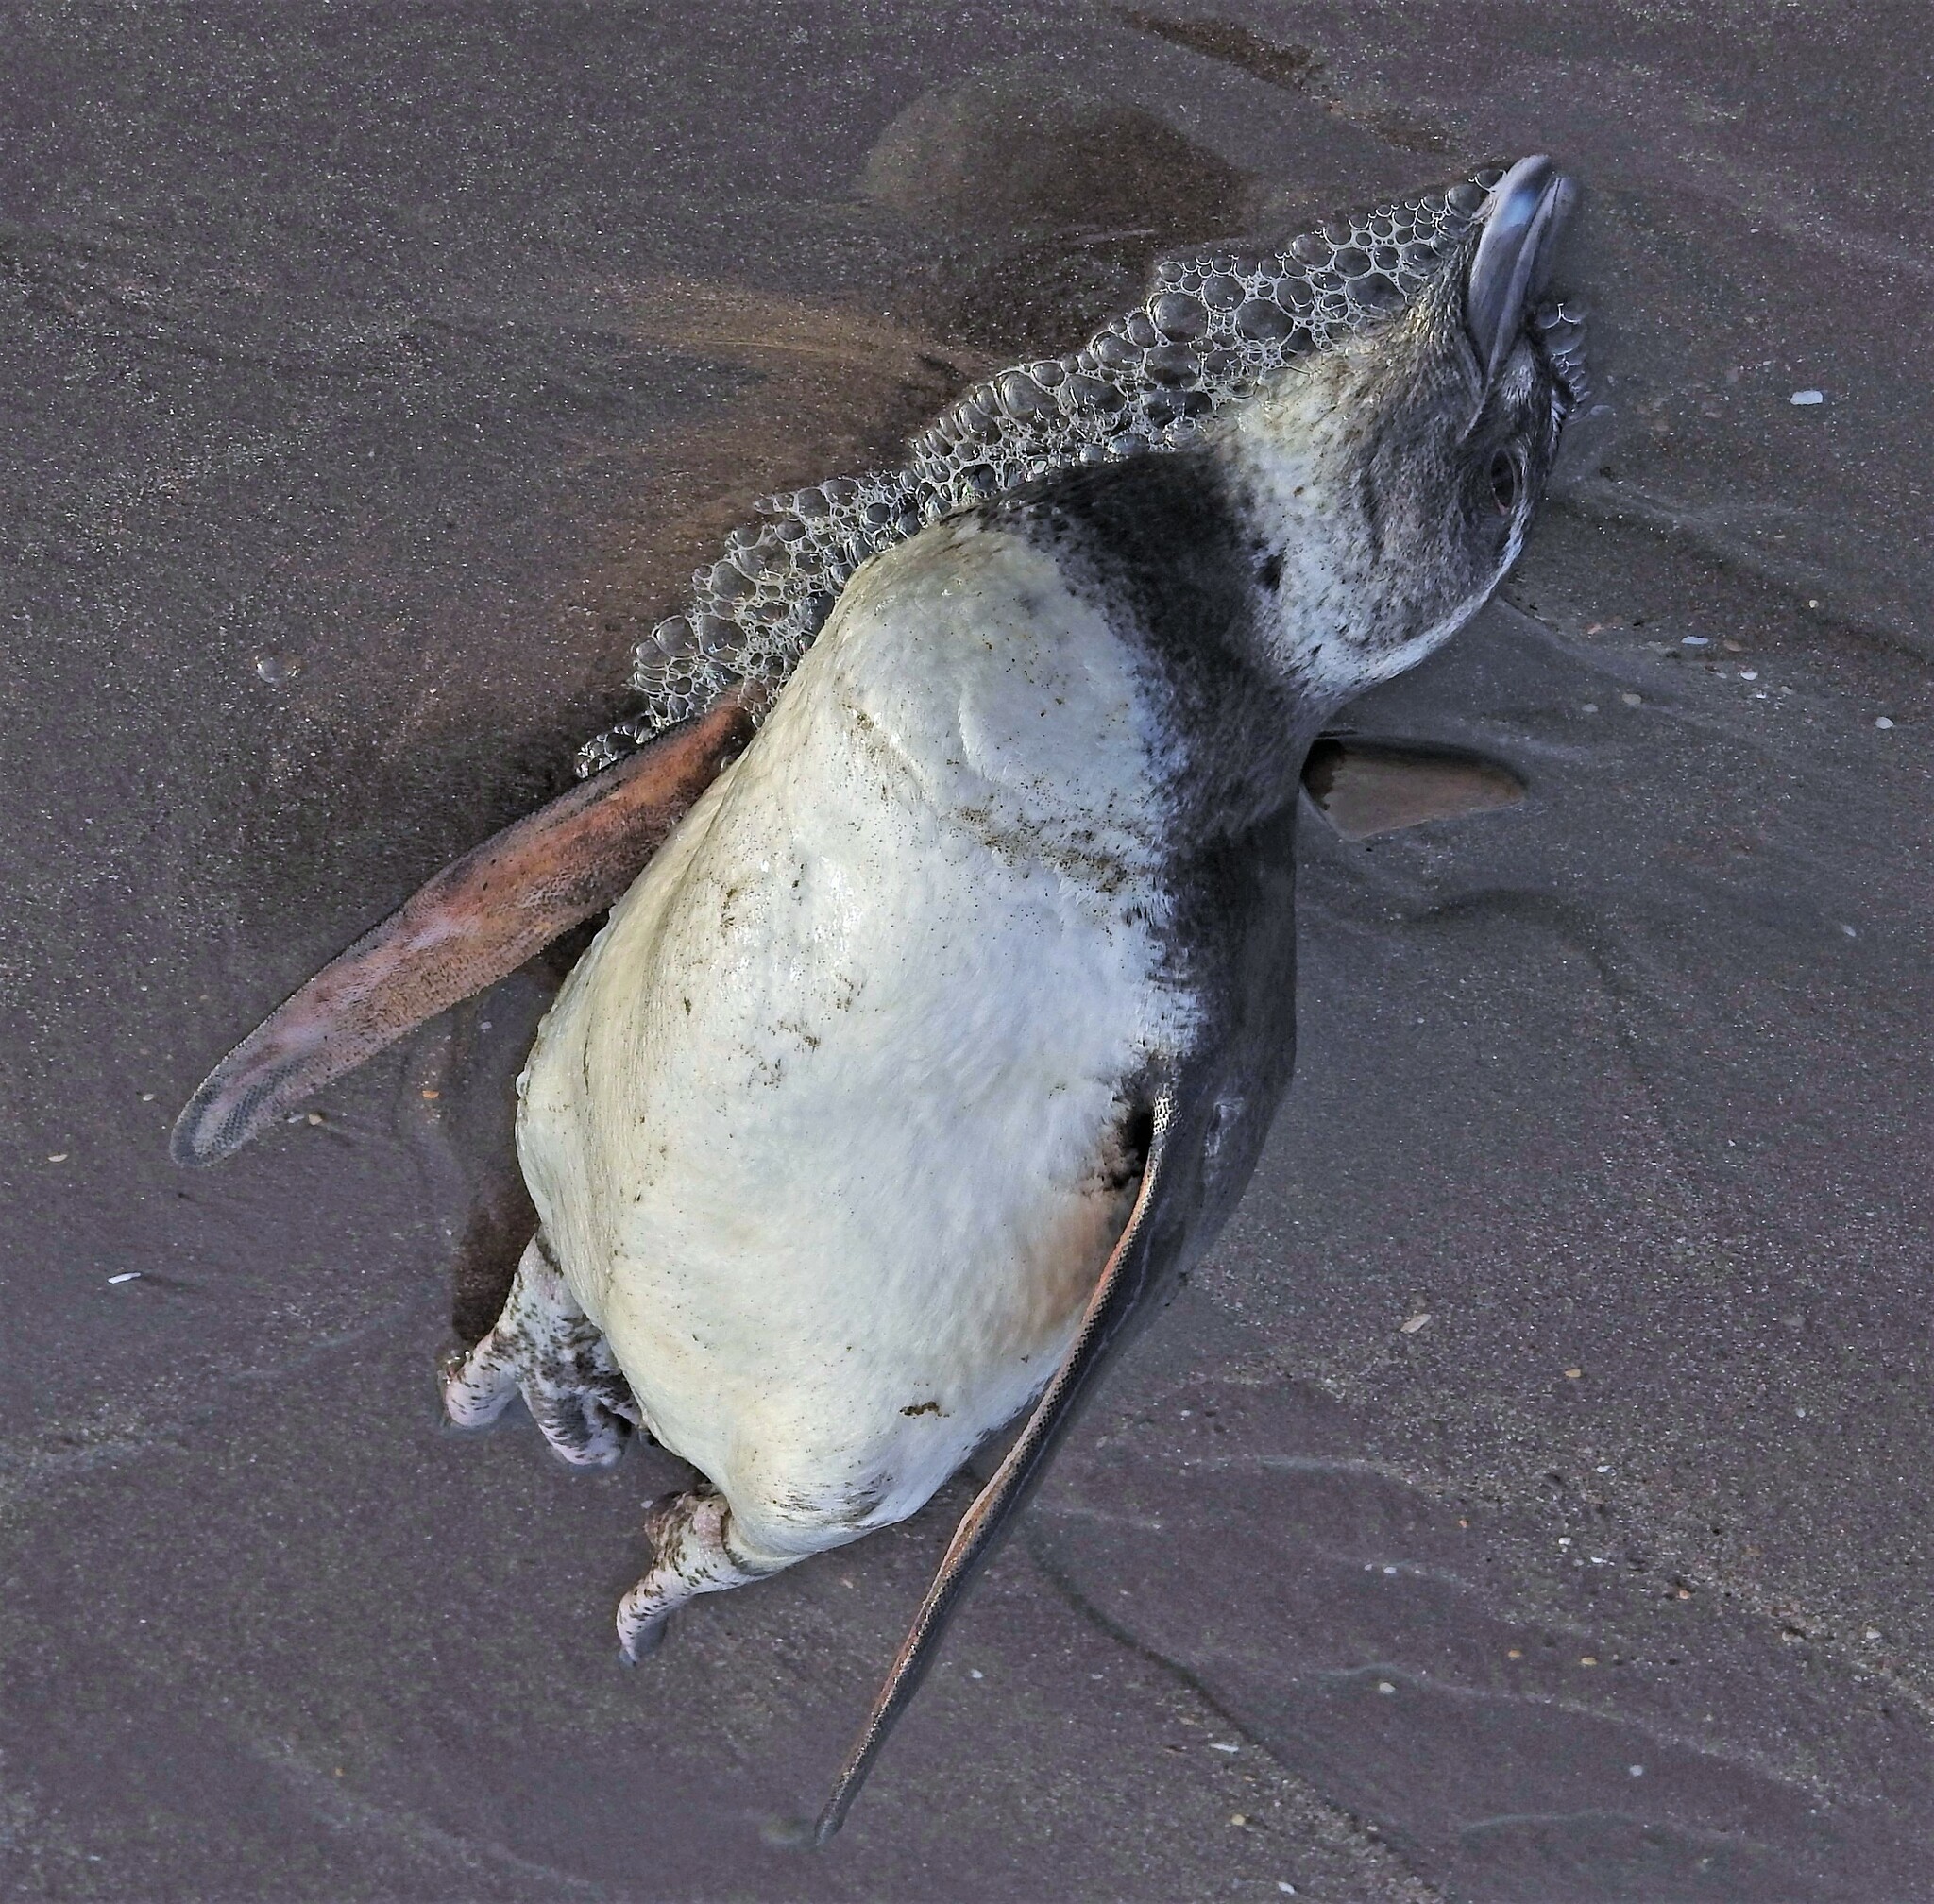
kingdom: Animalia
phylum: Chordata
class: Aves
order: Sphenisciformes
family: Spheniscidae
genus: Spheniscus
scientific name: Spheniscus magellanicus
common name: Magellanic penguin
